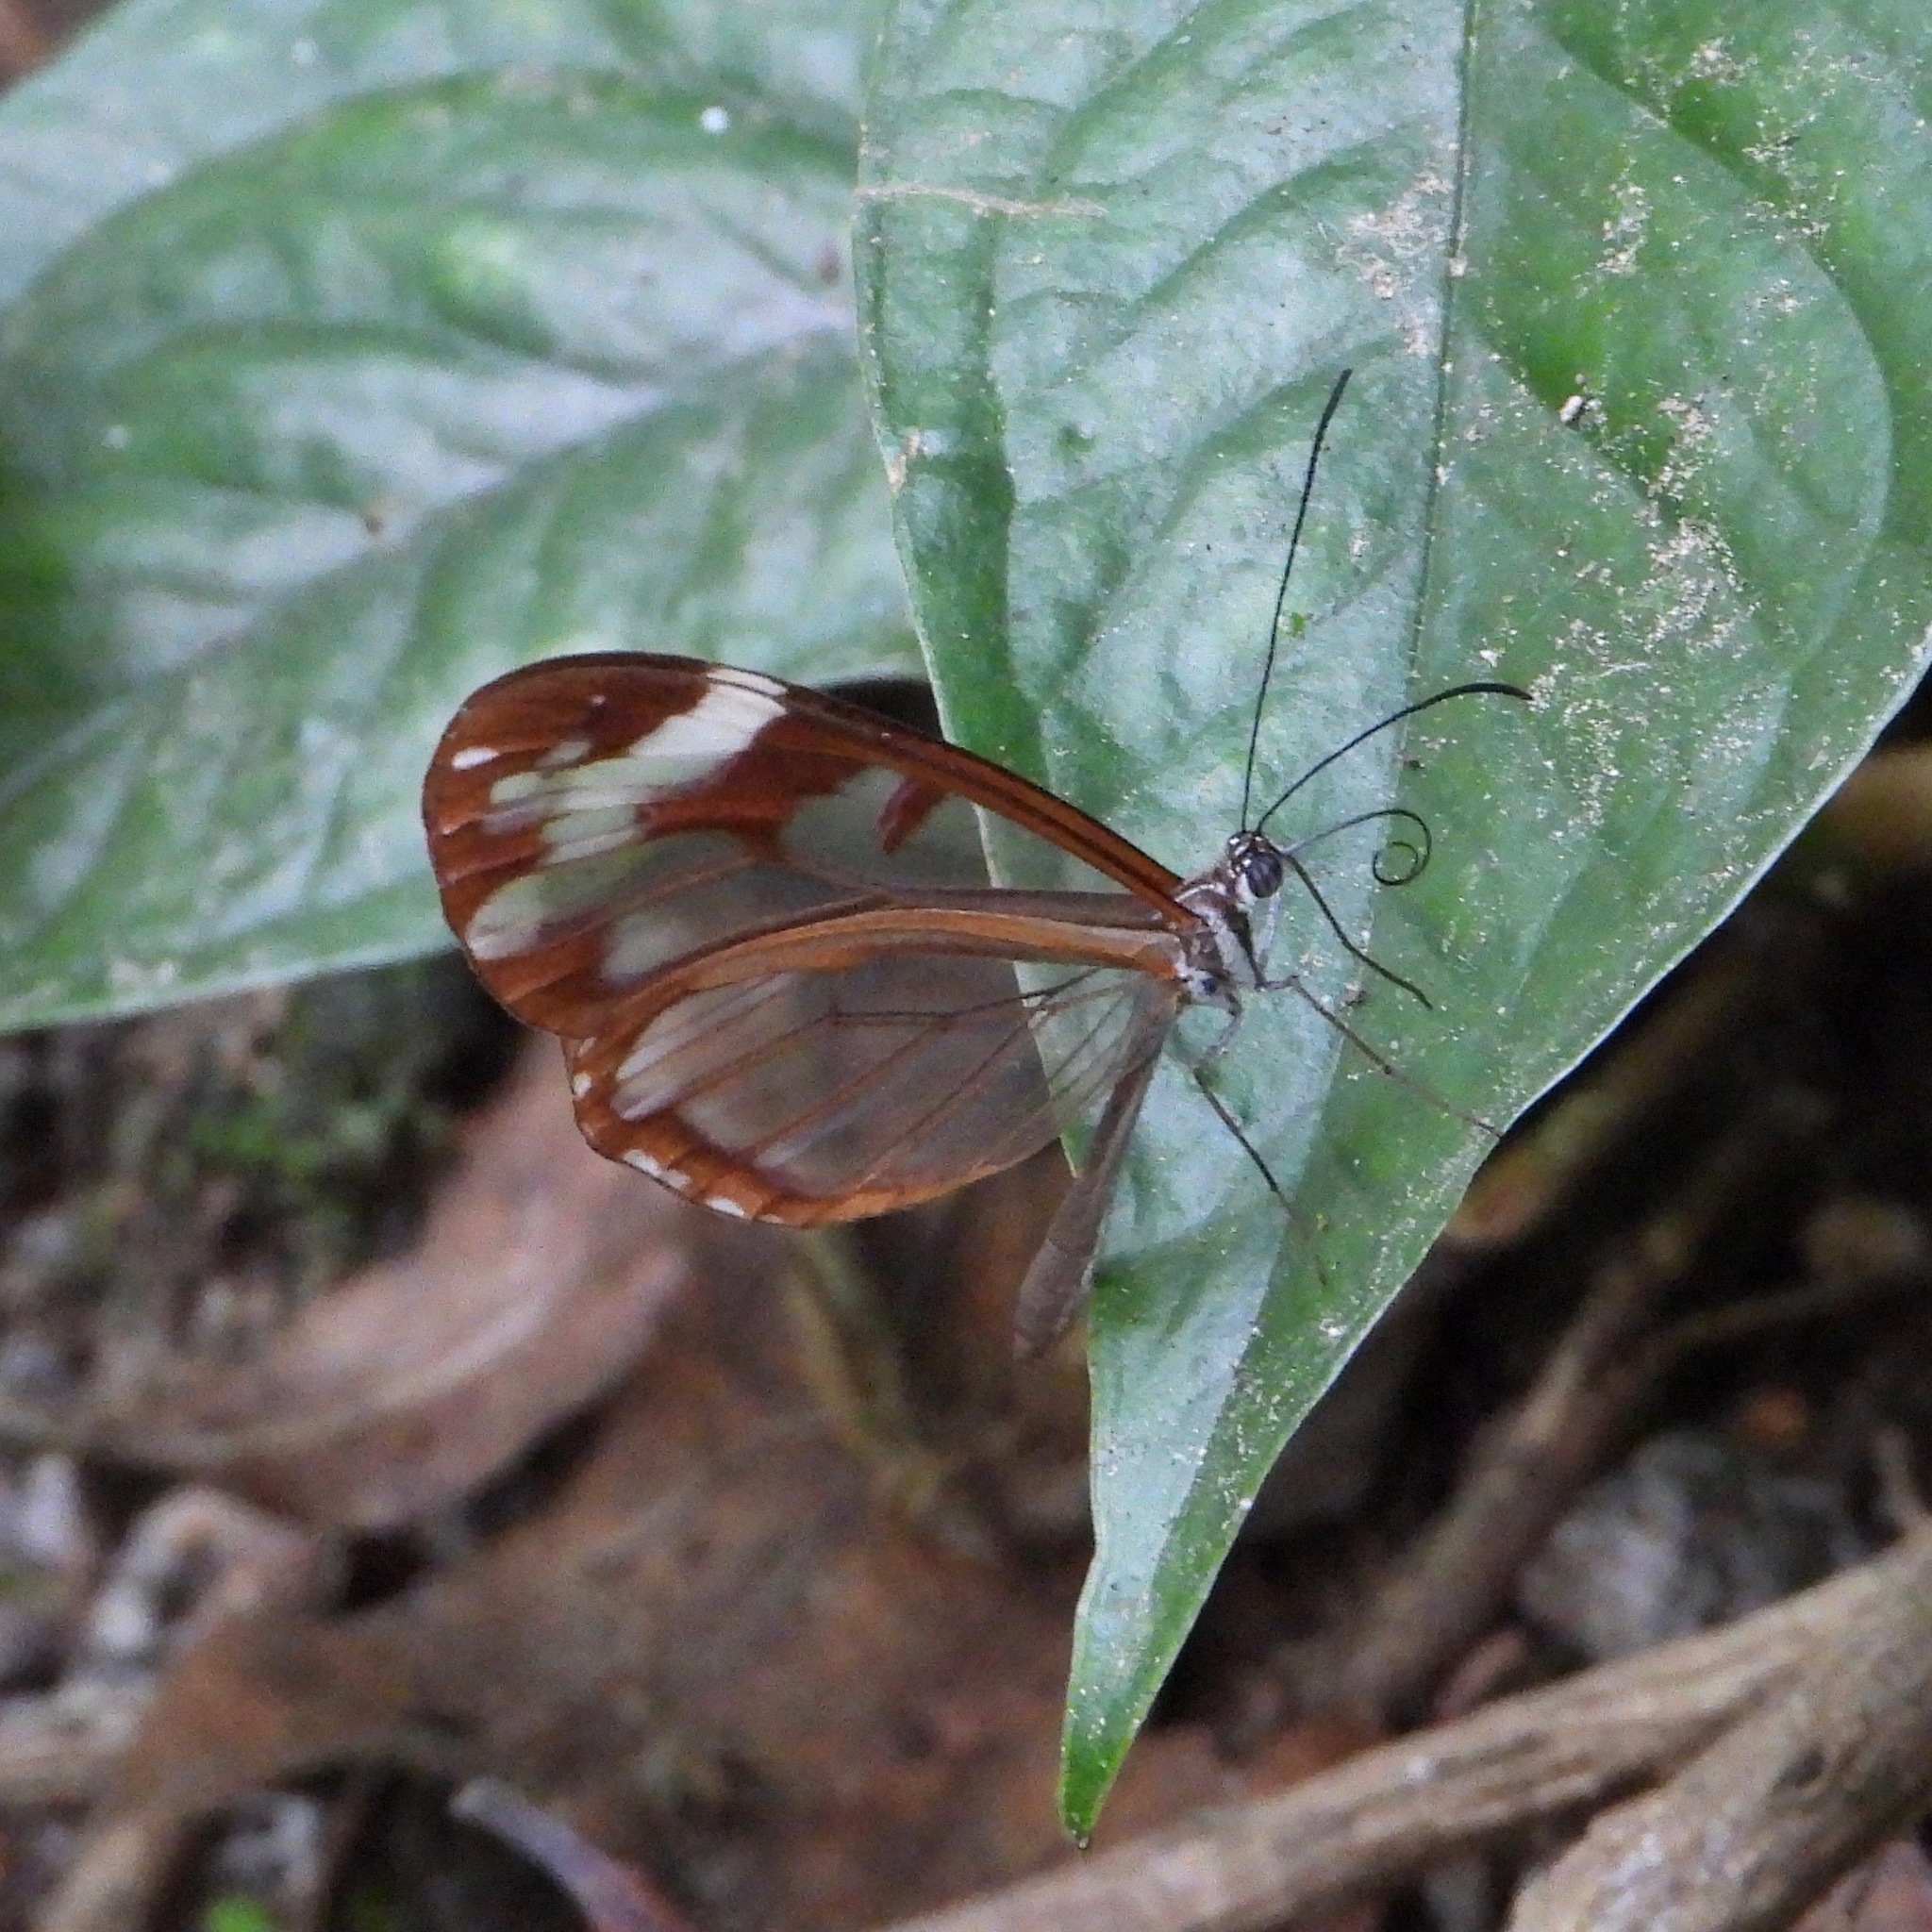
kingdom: Animalia
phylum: Arthropoda
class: Insecta
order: Lepidoptera
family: Nymphalidae
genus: Oleria
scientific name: Oleria zea
